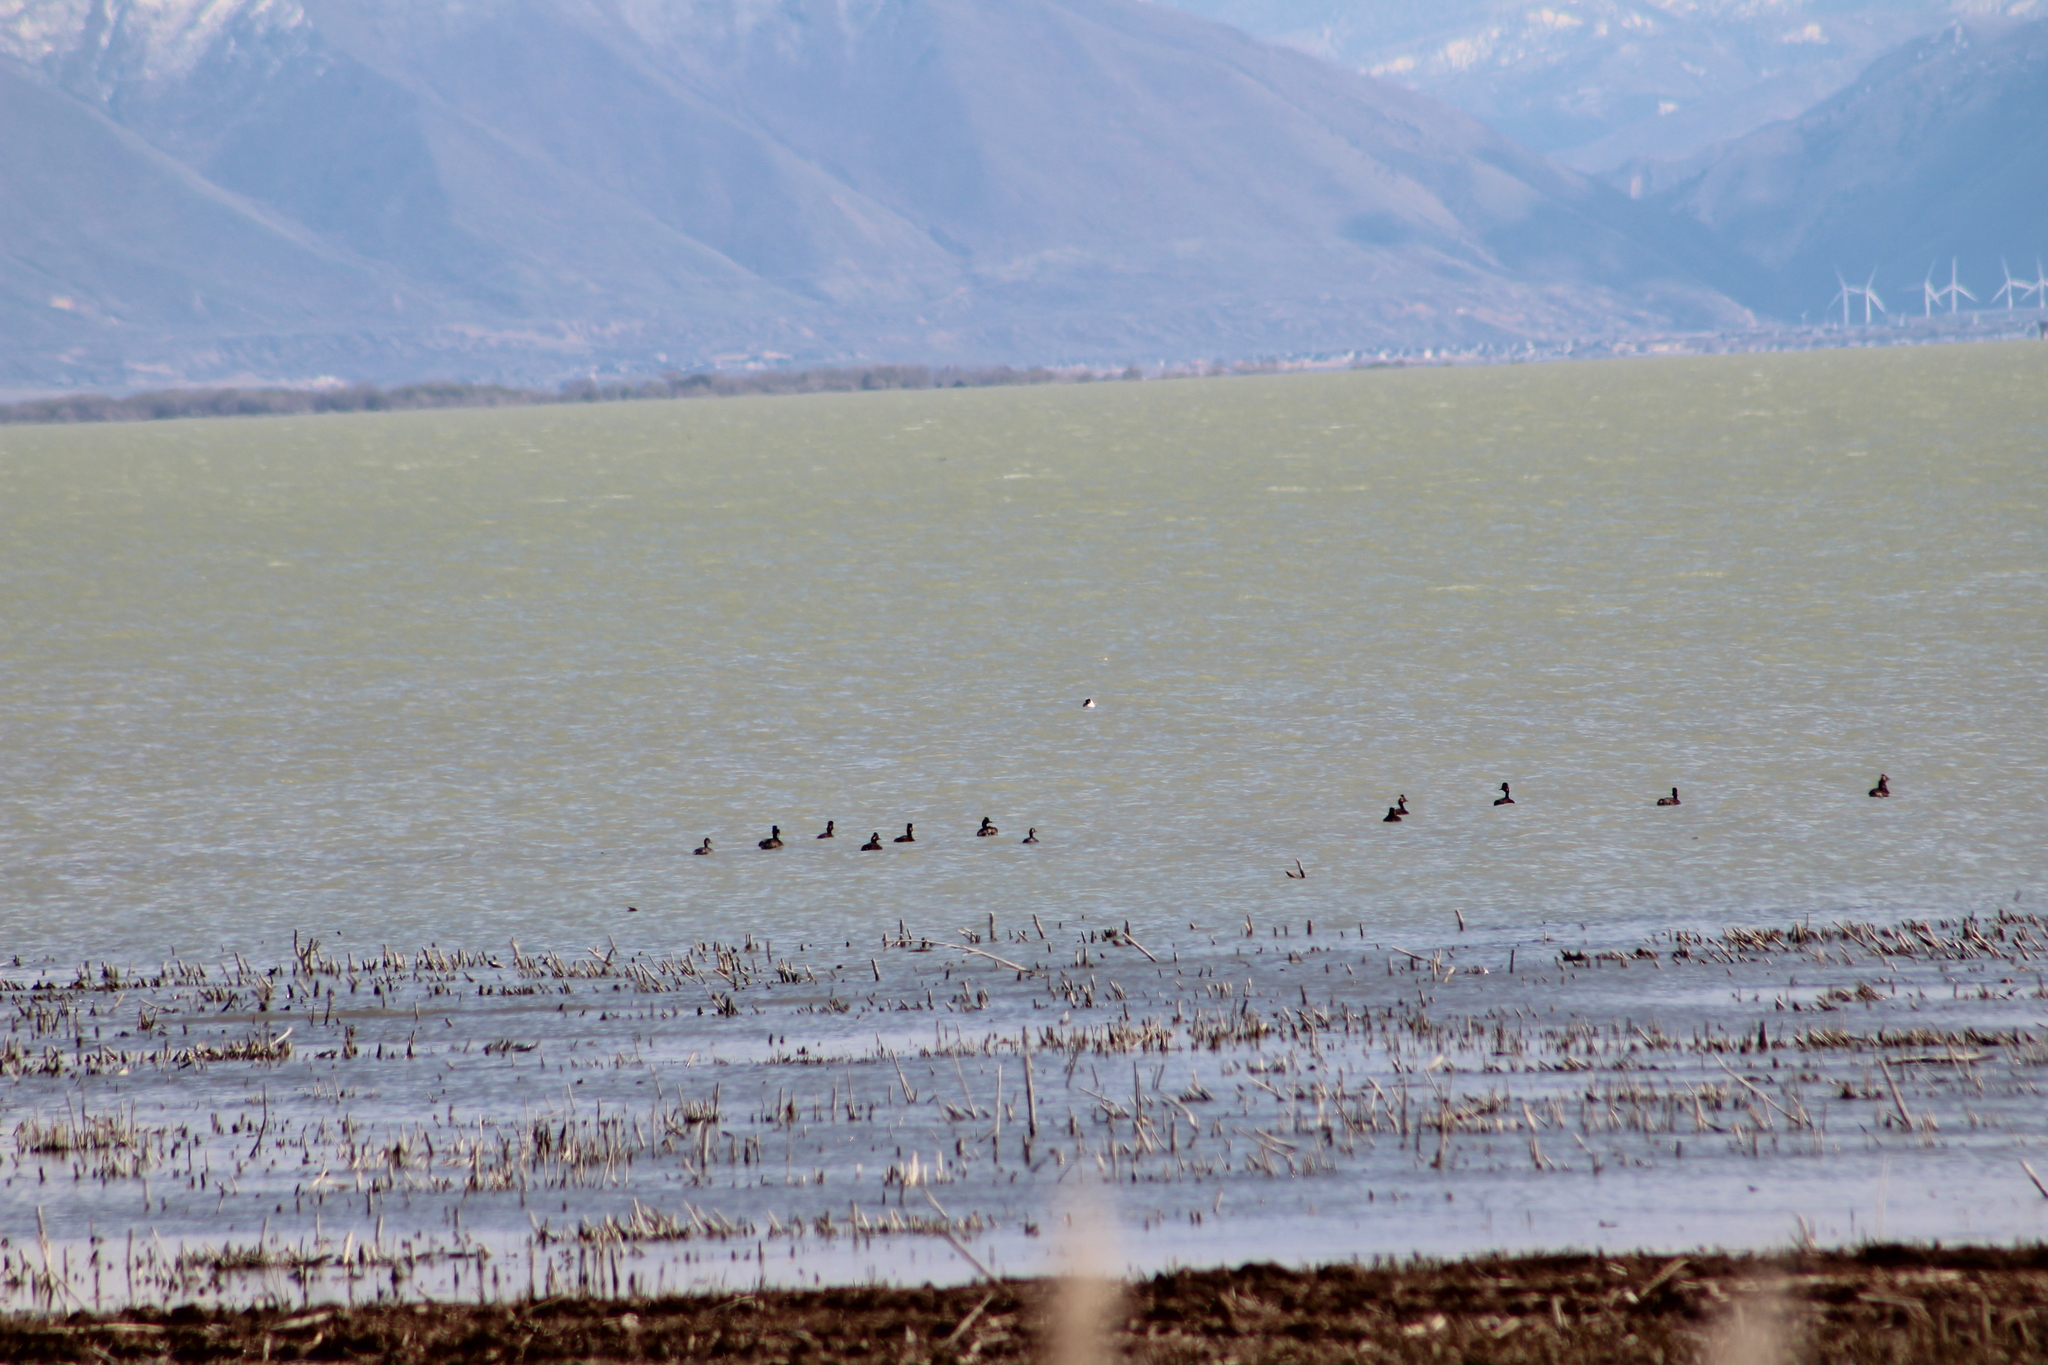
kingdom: Animalia
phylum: Chordata
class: Aves
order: Podicipediformes
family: Podicipedidae
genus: Podiceps
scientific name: Podiceps nigricollis
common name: Black-necked grebe
